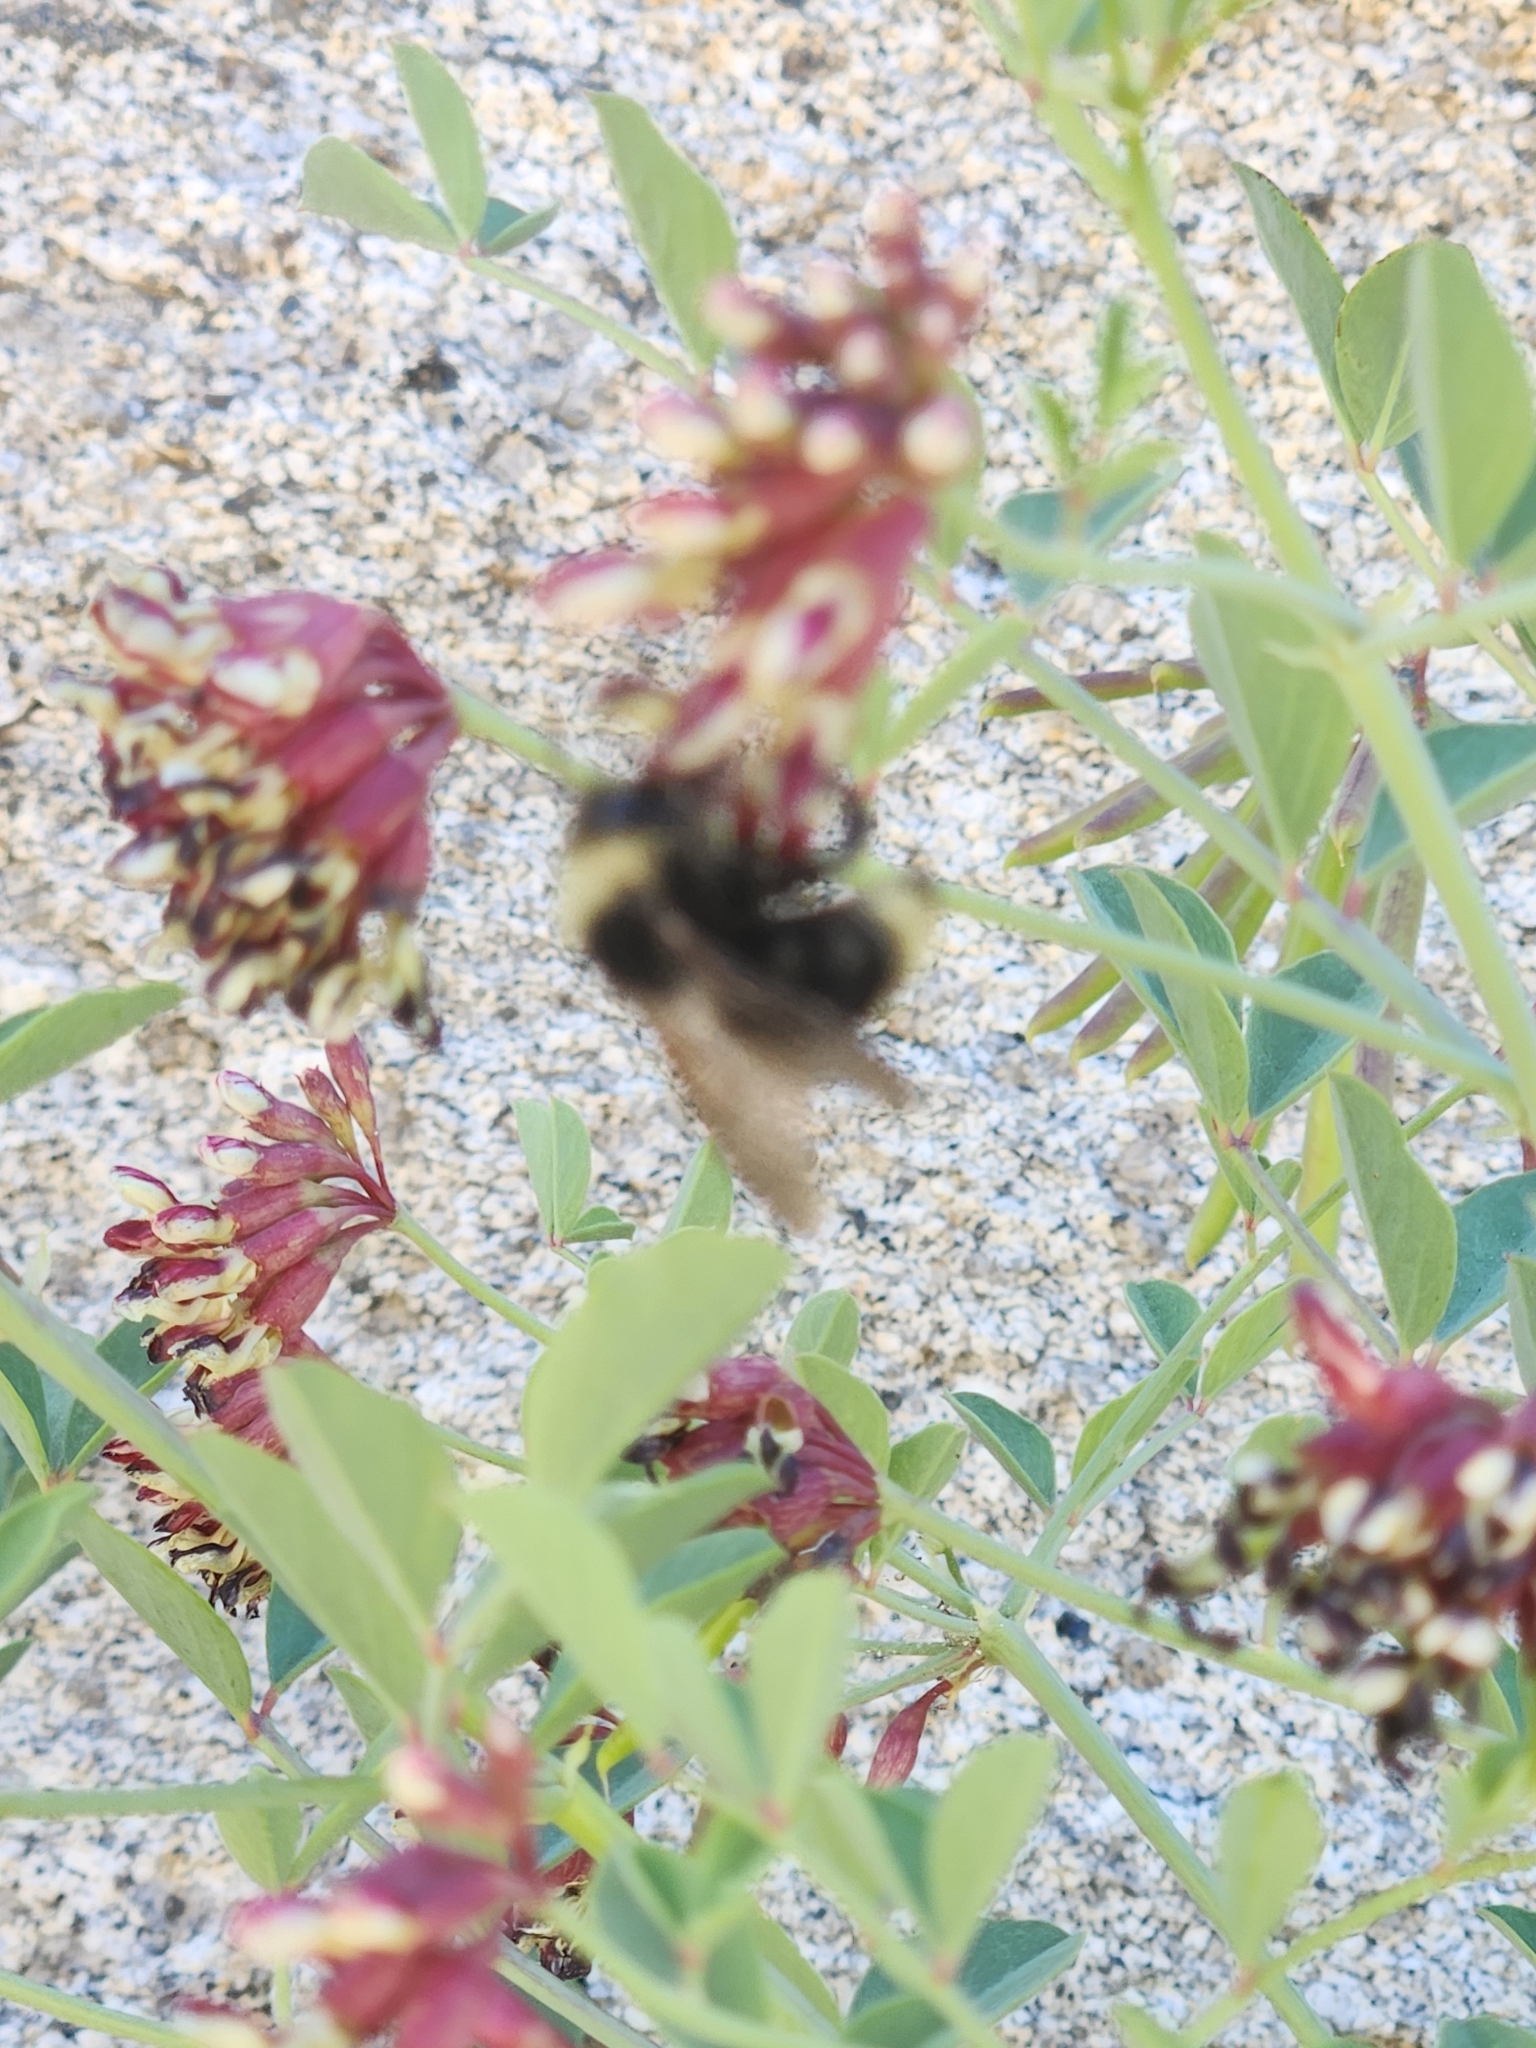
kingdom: Animalia
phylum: Arthropoda
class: Insecta
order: Hymenoptera
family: Apidae
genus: Bombus
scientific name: Bombus californicus
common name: California bumble bee
